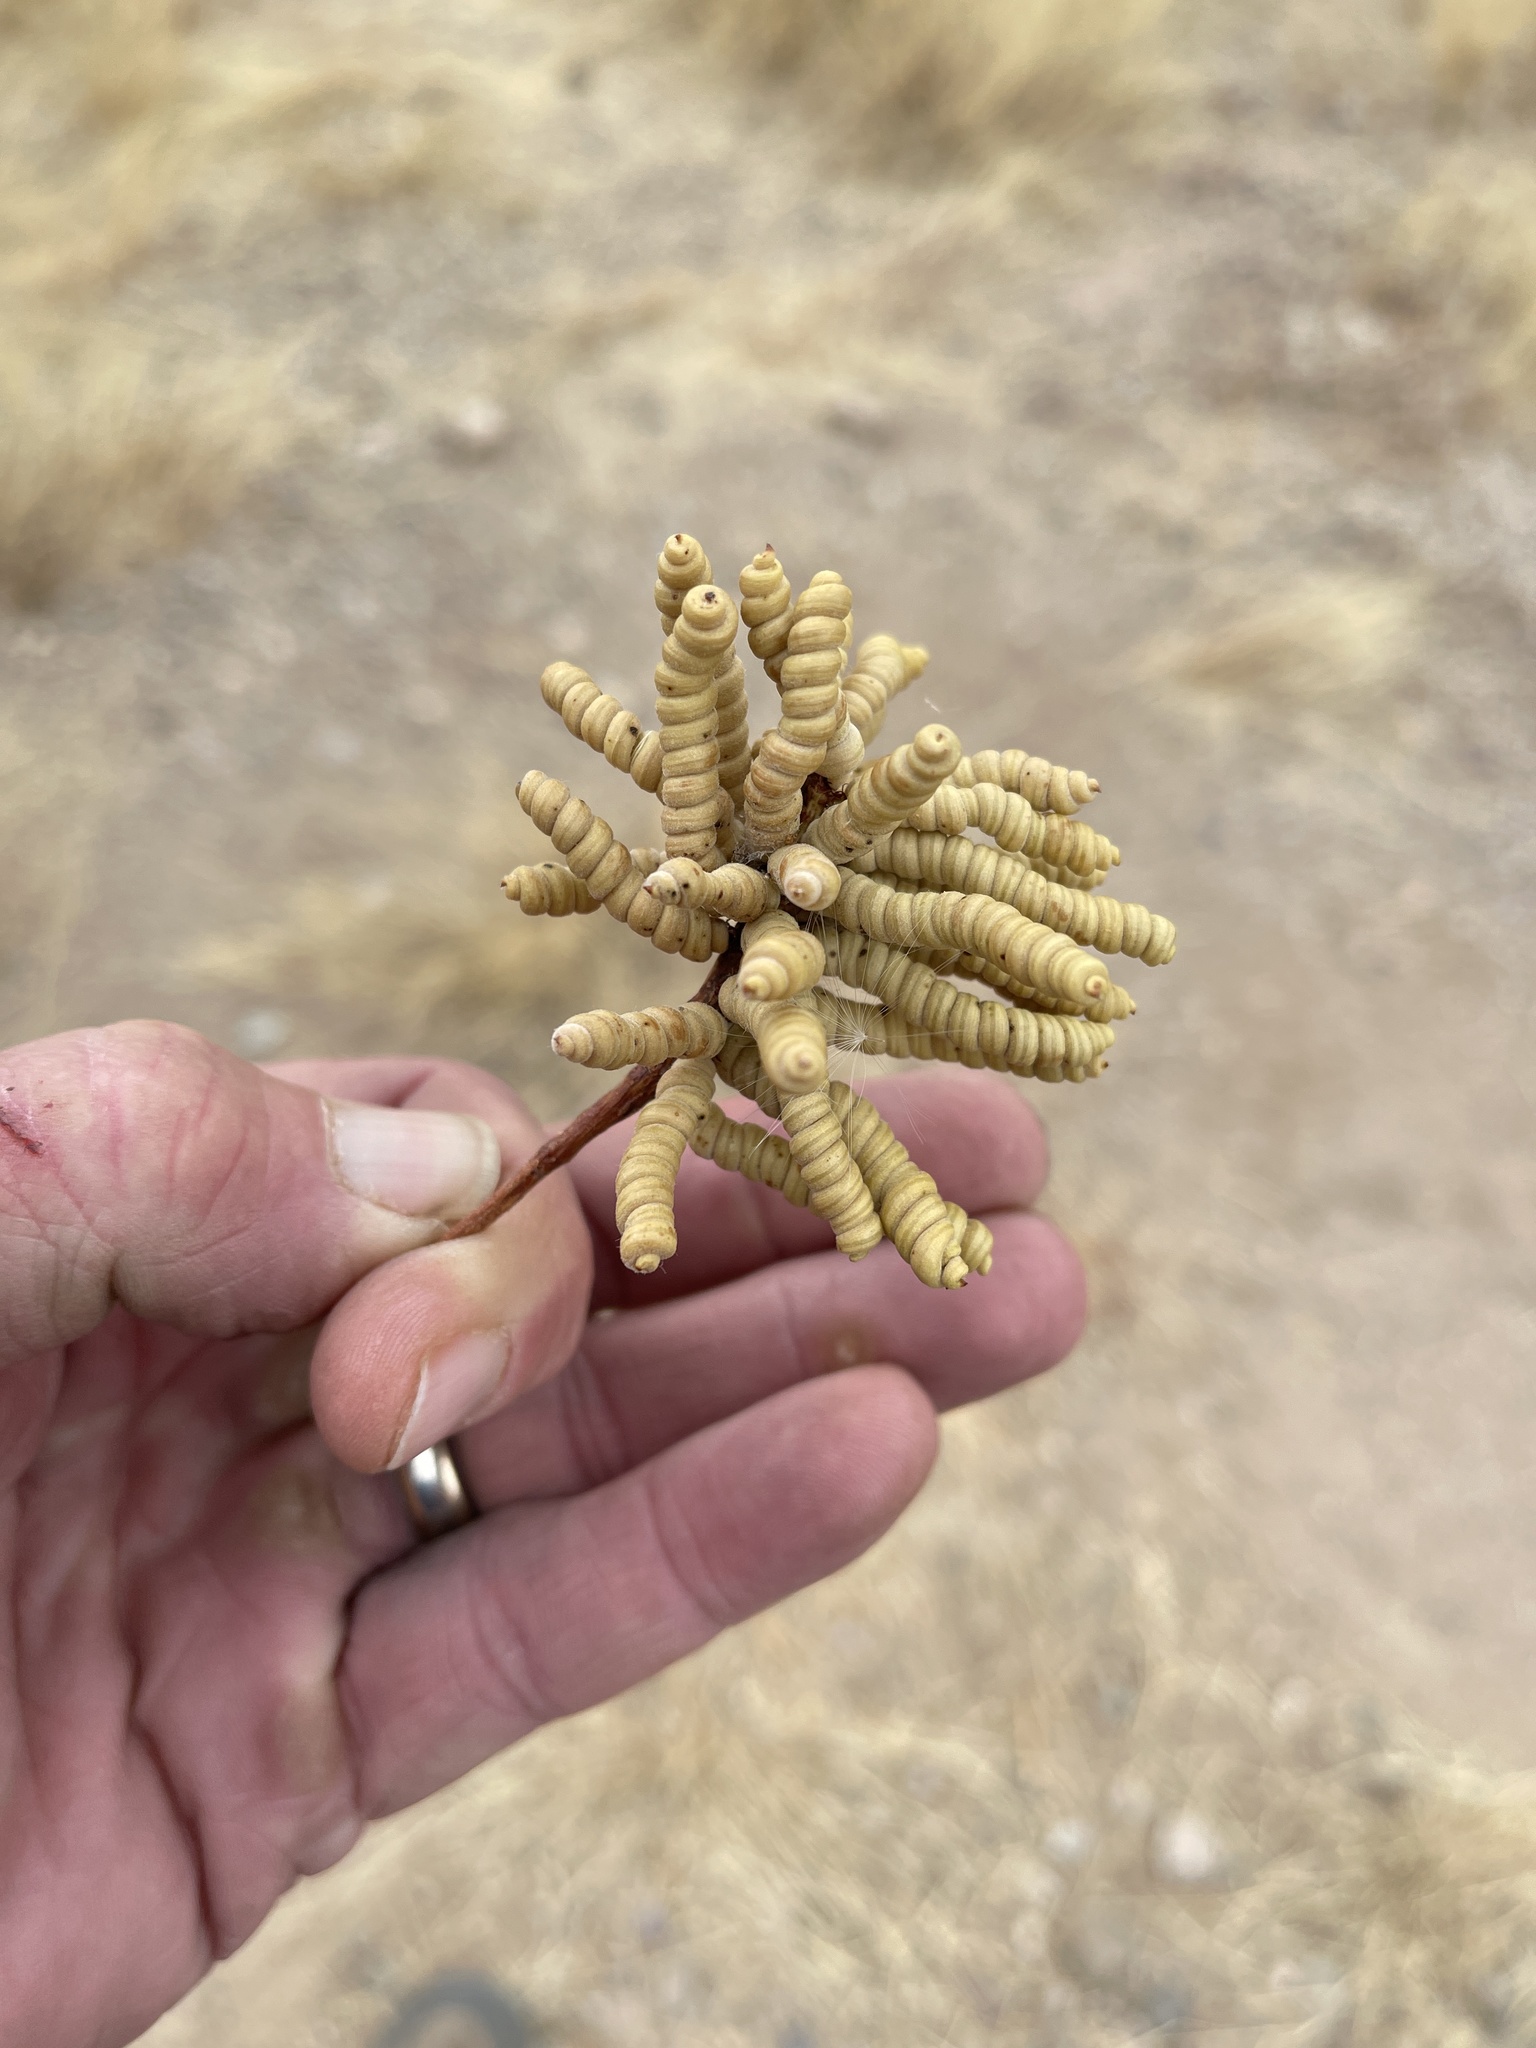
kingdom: Plantae
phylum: Tracheophyta
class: Magnoliopsida
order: Fabales
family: Fabaceae
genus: Prosopis
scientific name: Prosopis pubescens
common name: Screw-bean
